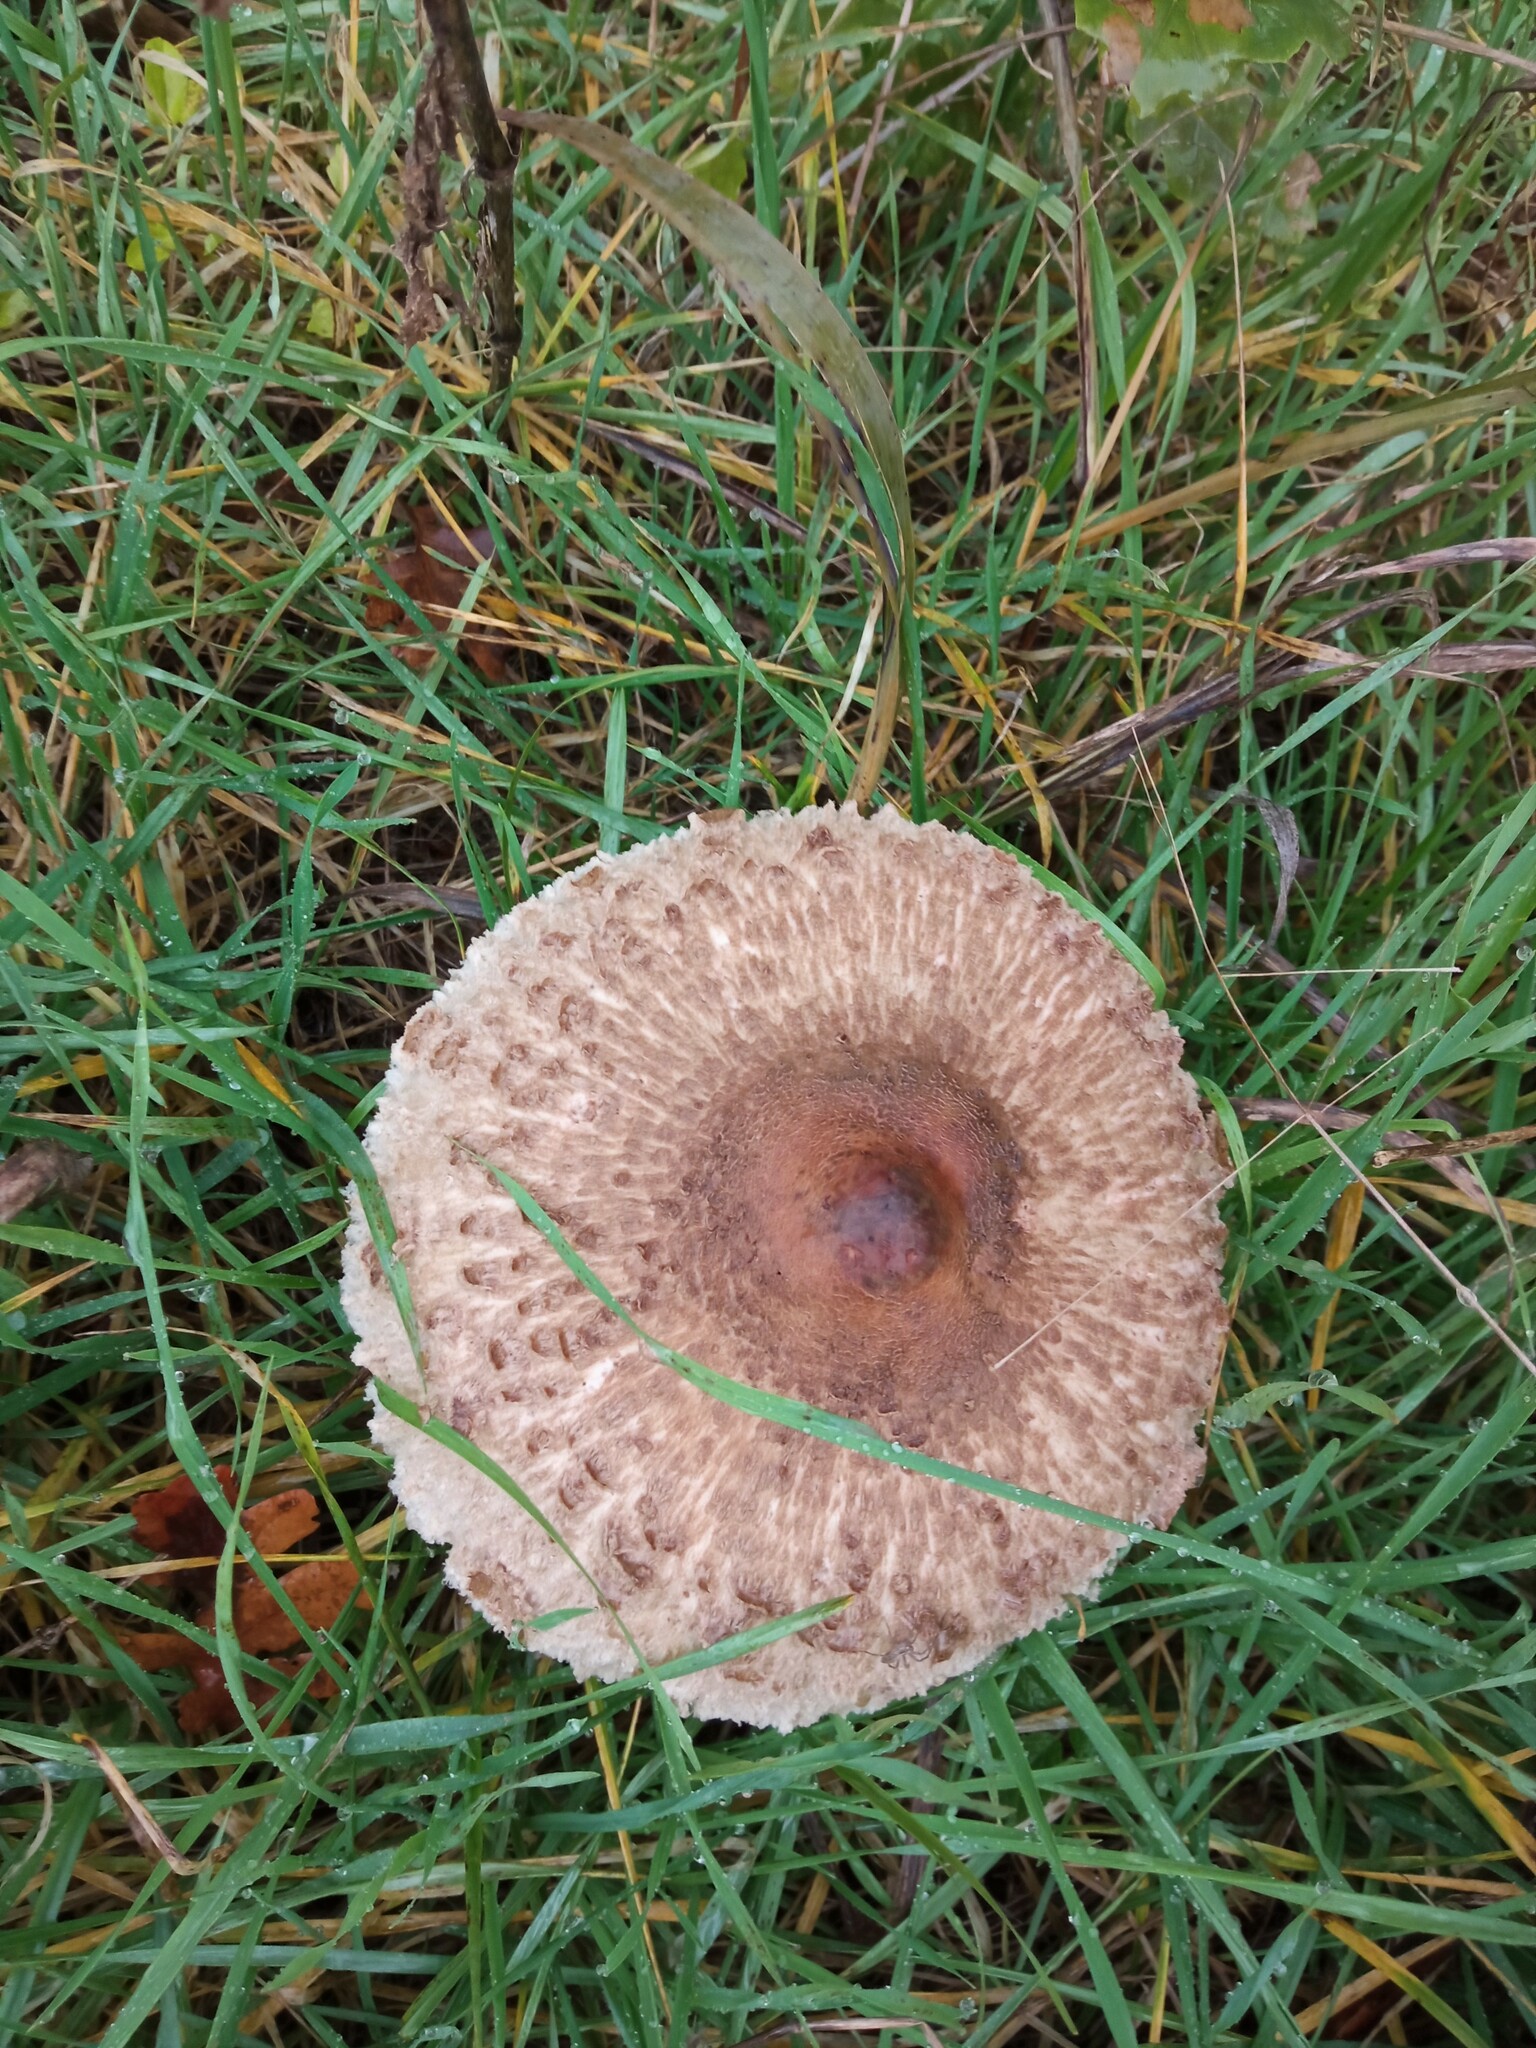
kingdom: Fungi
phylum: Basidiomycota
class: Agaricomycetes
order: Agaricales
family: Agaricaceae
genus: Macrolepiota
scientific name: Macrolepiota procera
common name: Parasol
